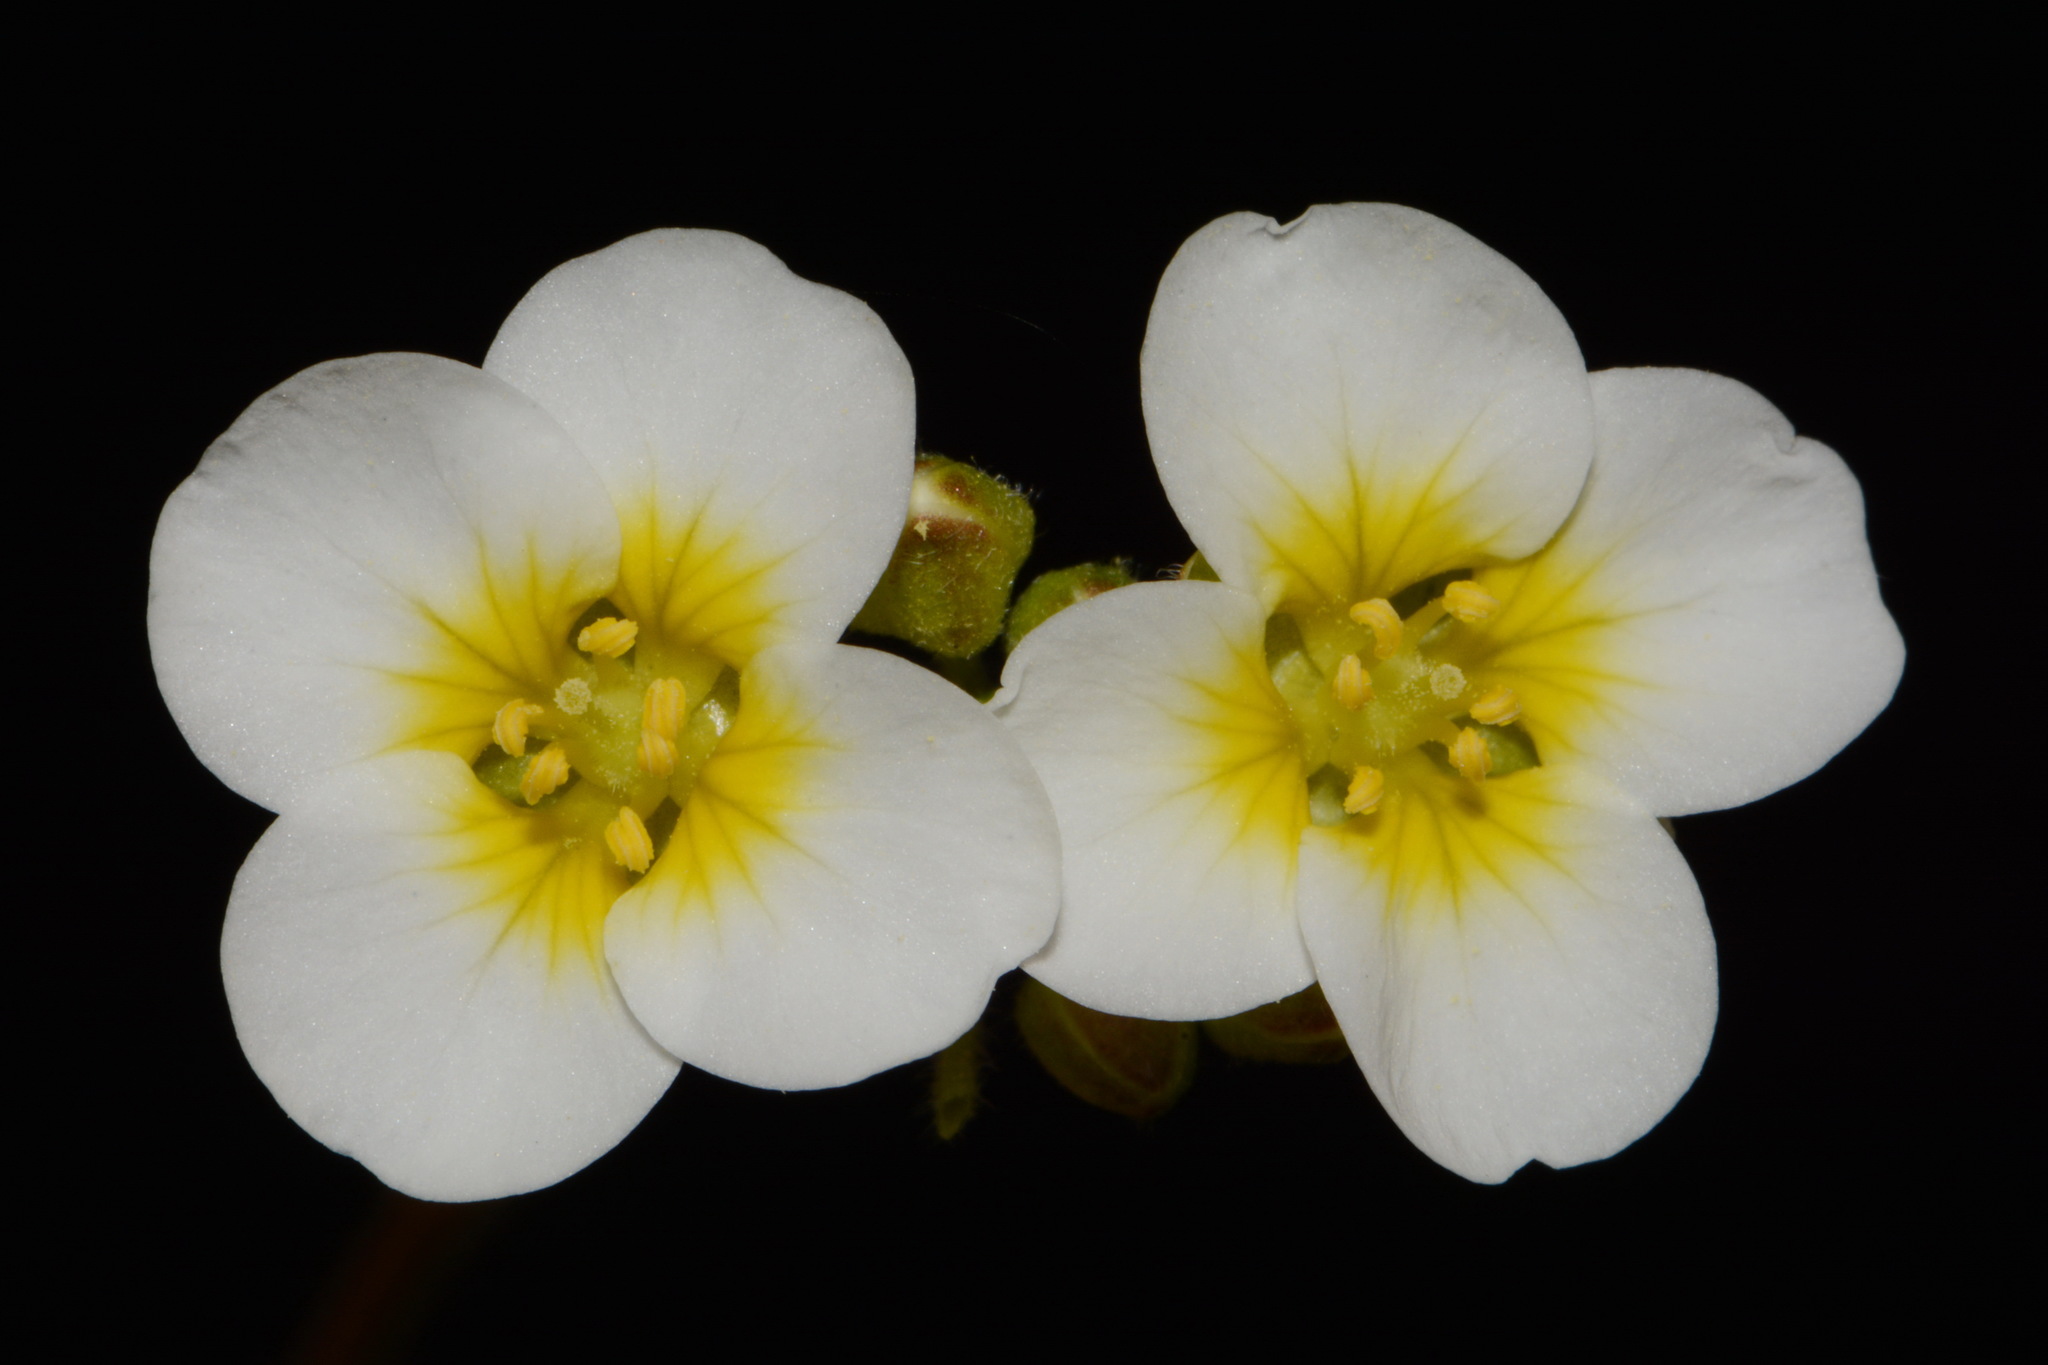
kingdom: Plantae
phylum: Tracheophyta
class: Magnoliopsida
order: Brassicales
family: Brassicaceae
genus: Paysonia
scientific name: Paysonia stonensis
